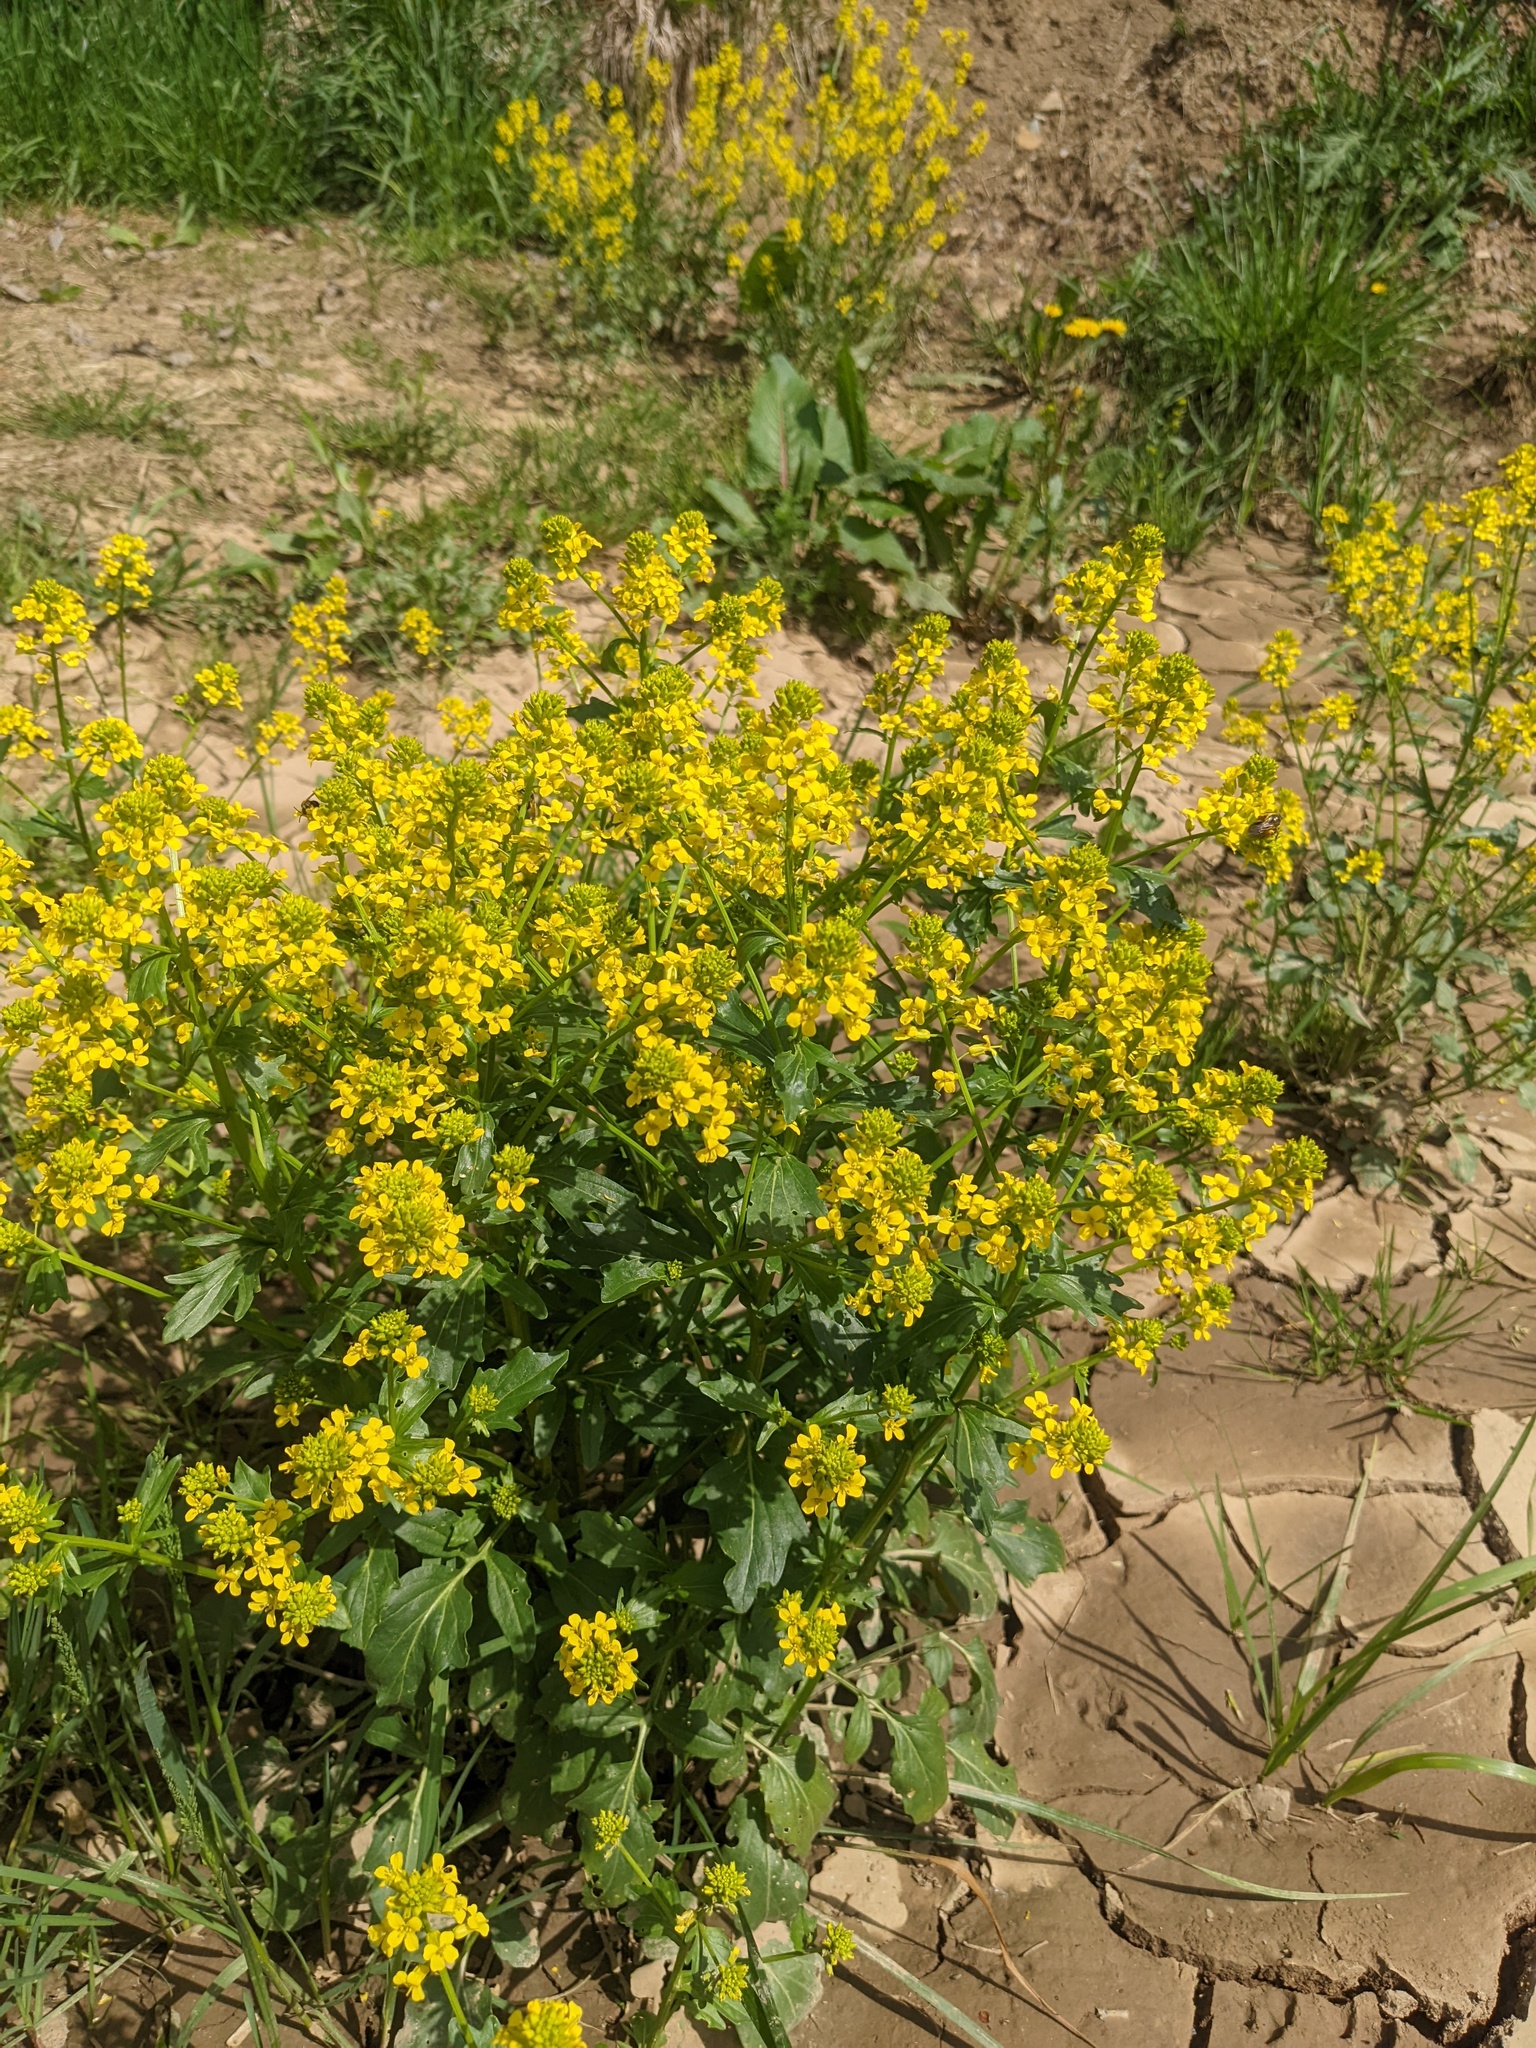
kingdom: Plantae
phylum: Tracheophyta
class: Magnoliopsida
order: Brassicales
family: Brassicaceae
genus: Barbarea
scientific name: Barbarea vulgaris
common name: Cressy-greens
